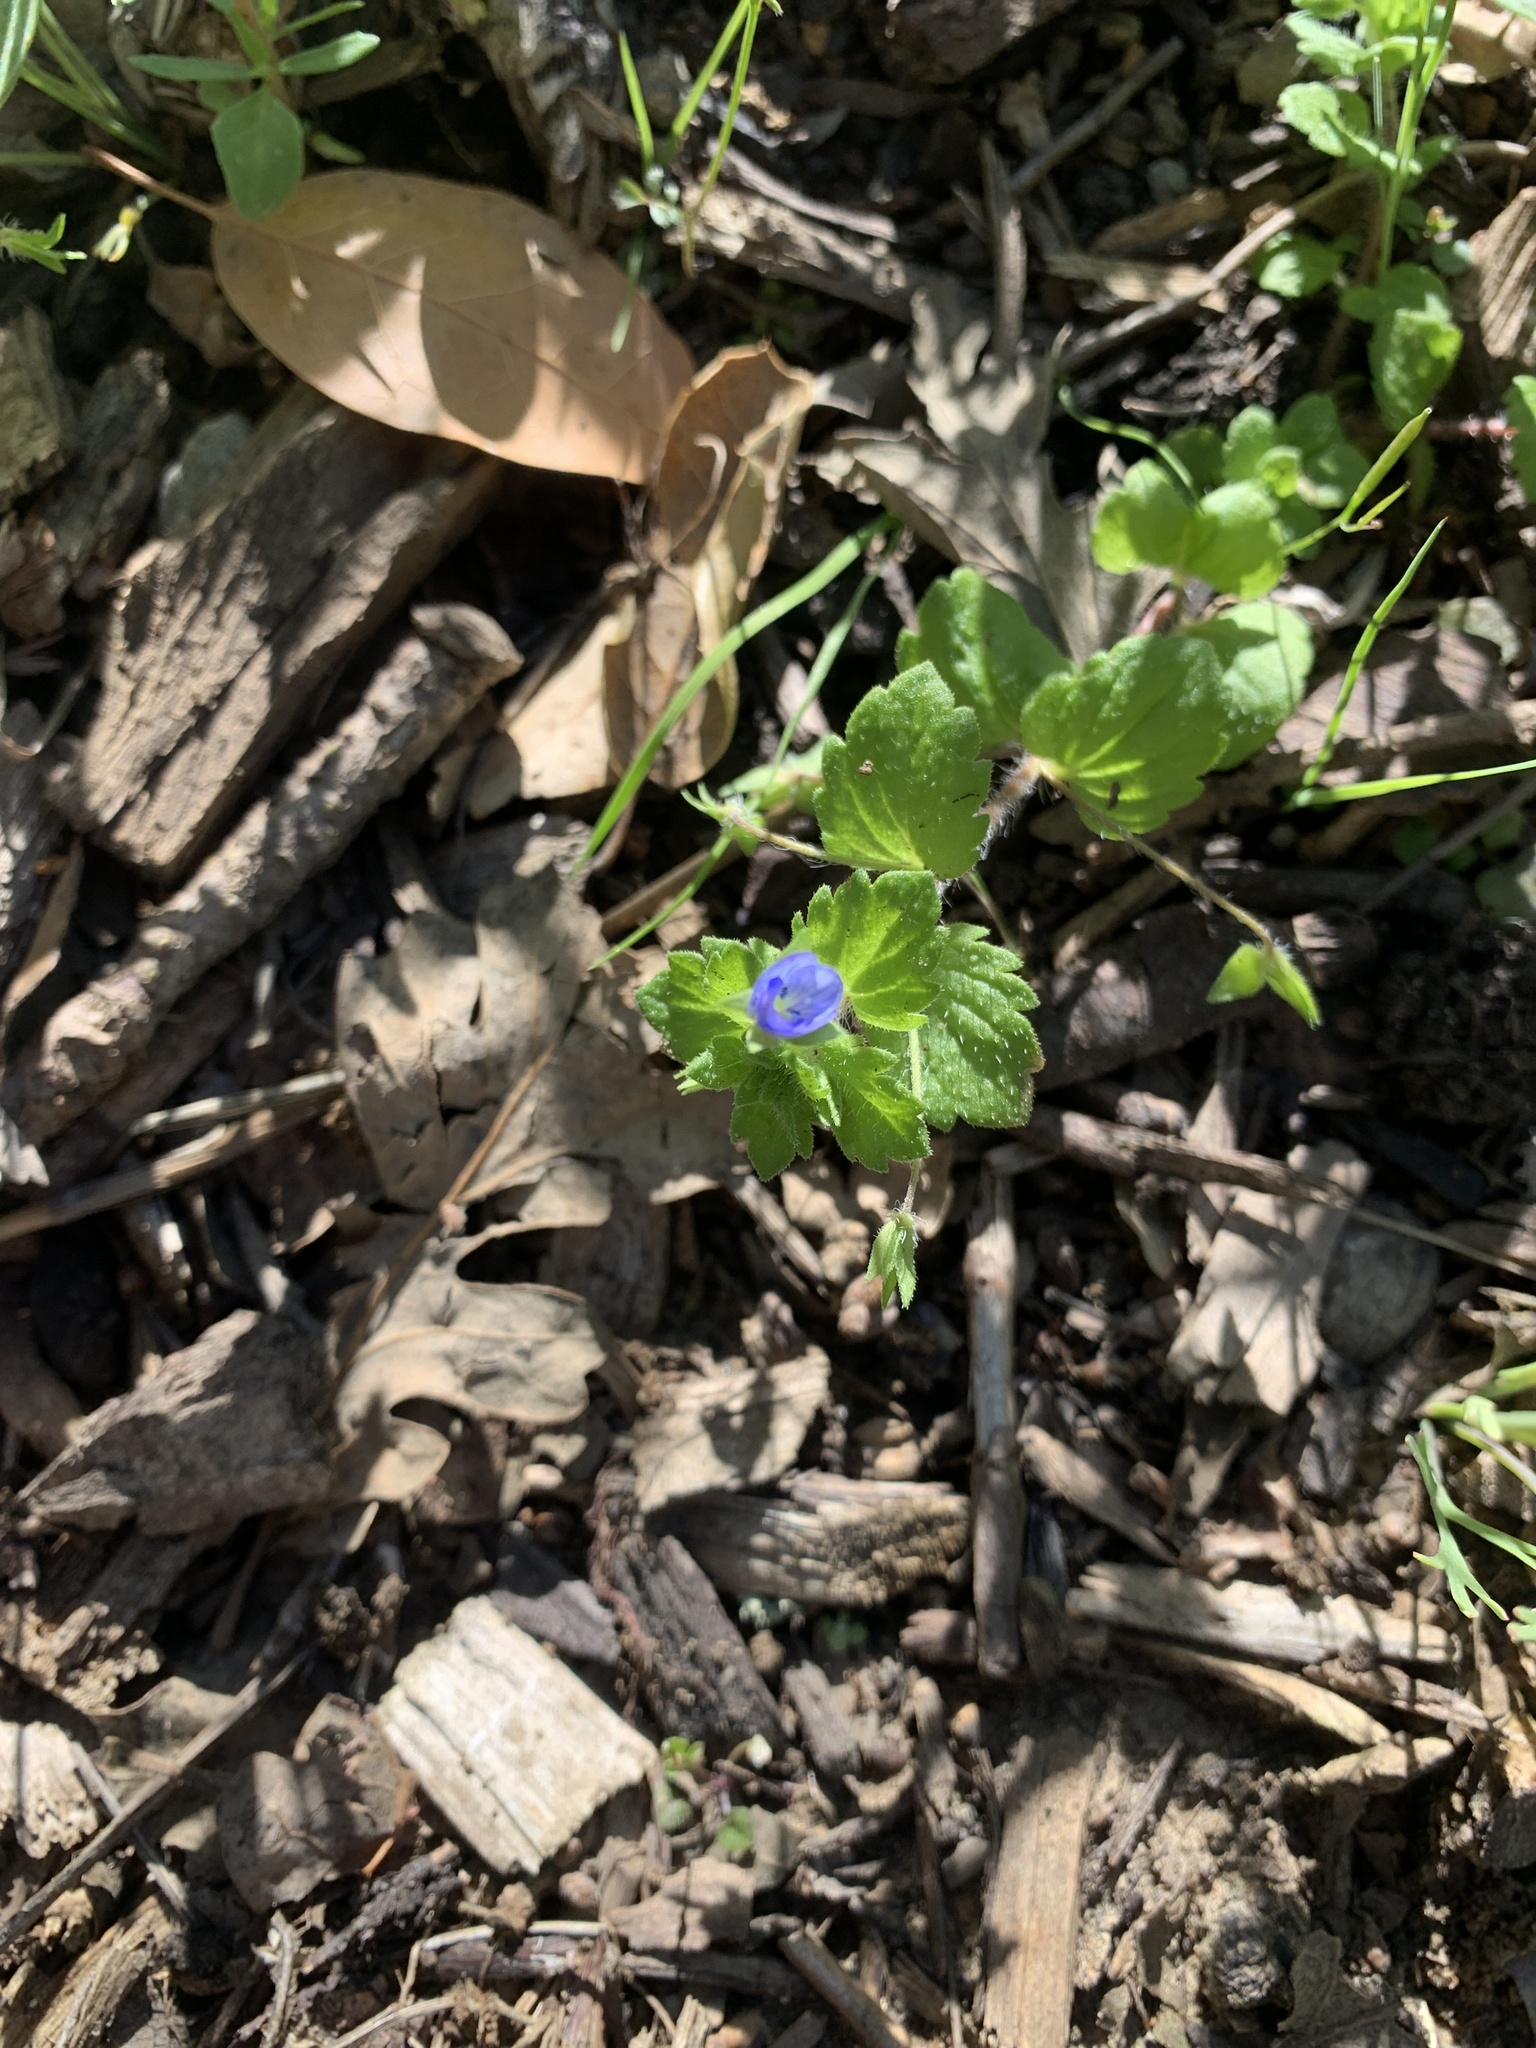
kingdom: Plantae
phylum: Tracheophyta
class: Magnoliopsida
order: Lamiales
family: Plantaginaceae
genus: Veronica
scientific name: Veronica persica
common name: Common field-speedwell
